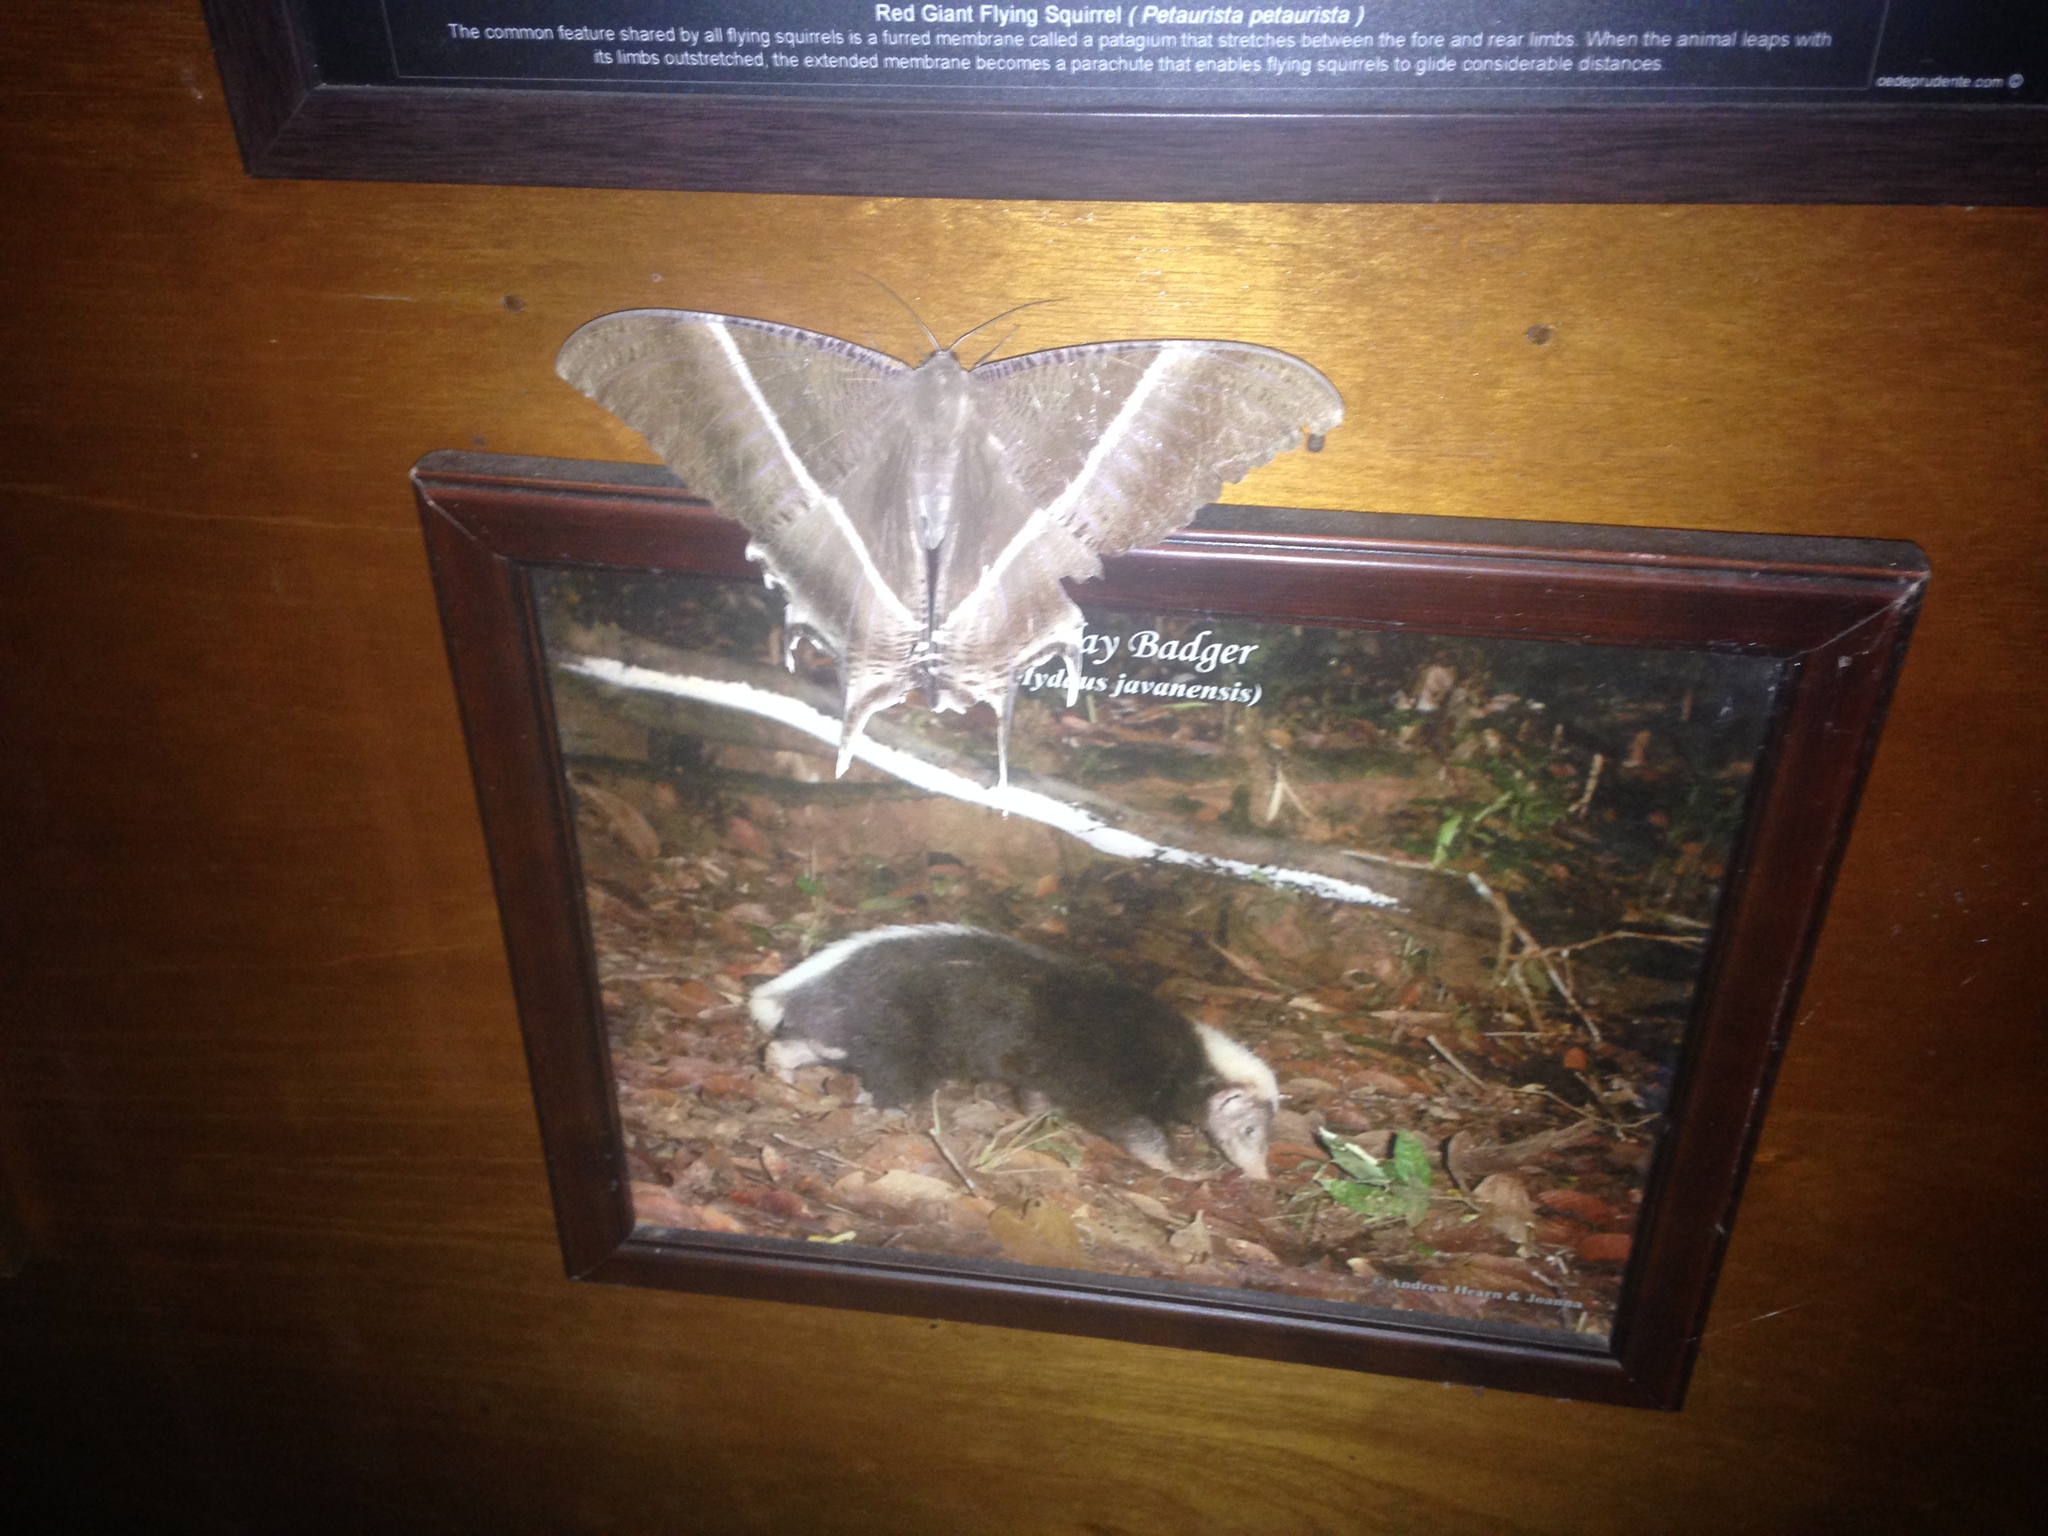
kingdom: Animalia
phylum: Arthropoda
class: Insecta
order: Lepidoptera
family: Uraniidae
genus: Lyssa
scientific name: Lyssa zampa
